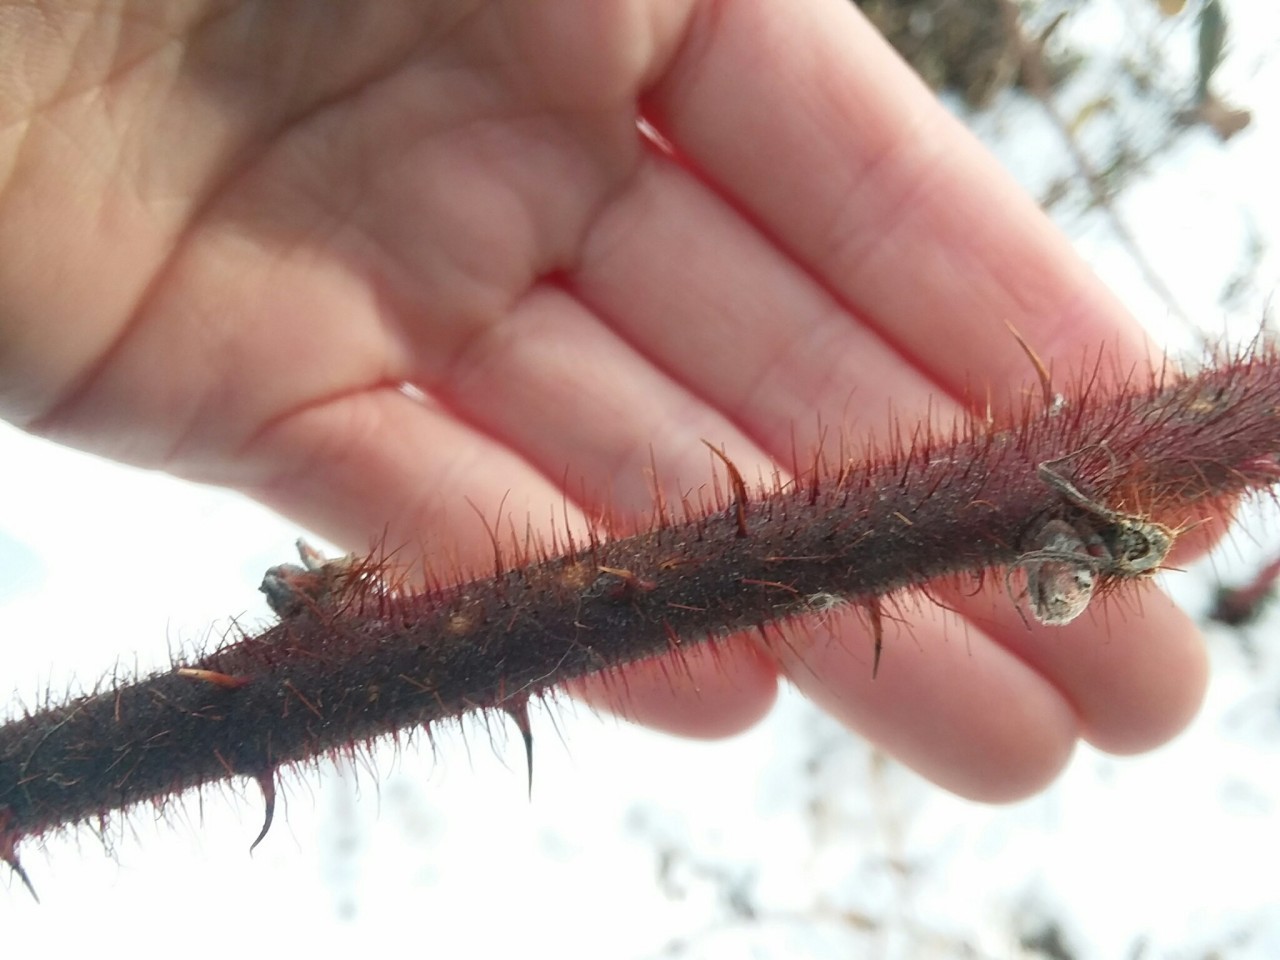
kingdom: Plantae
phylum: Tracheophyta
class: Magnoliopsida
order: Rosales
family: Rosaceae
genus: Rubus
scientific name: Rubus phoenicolasius
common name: Japanese wineberry
